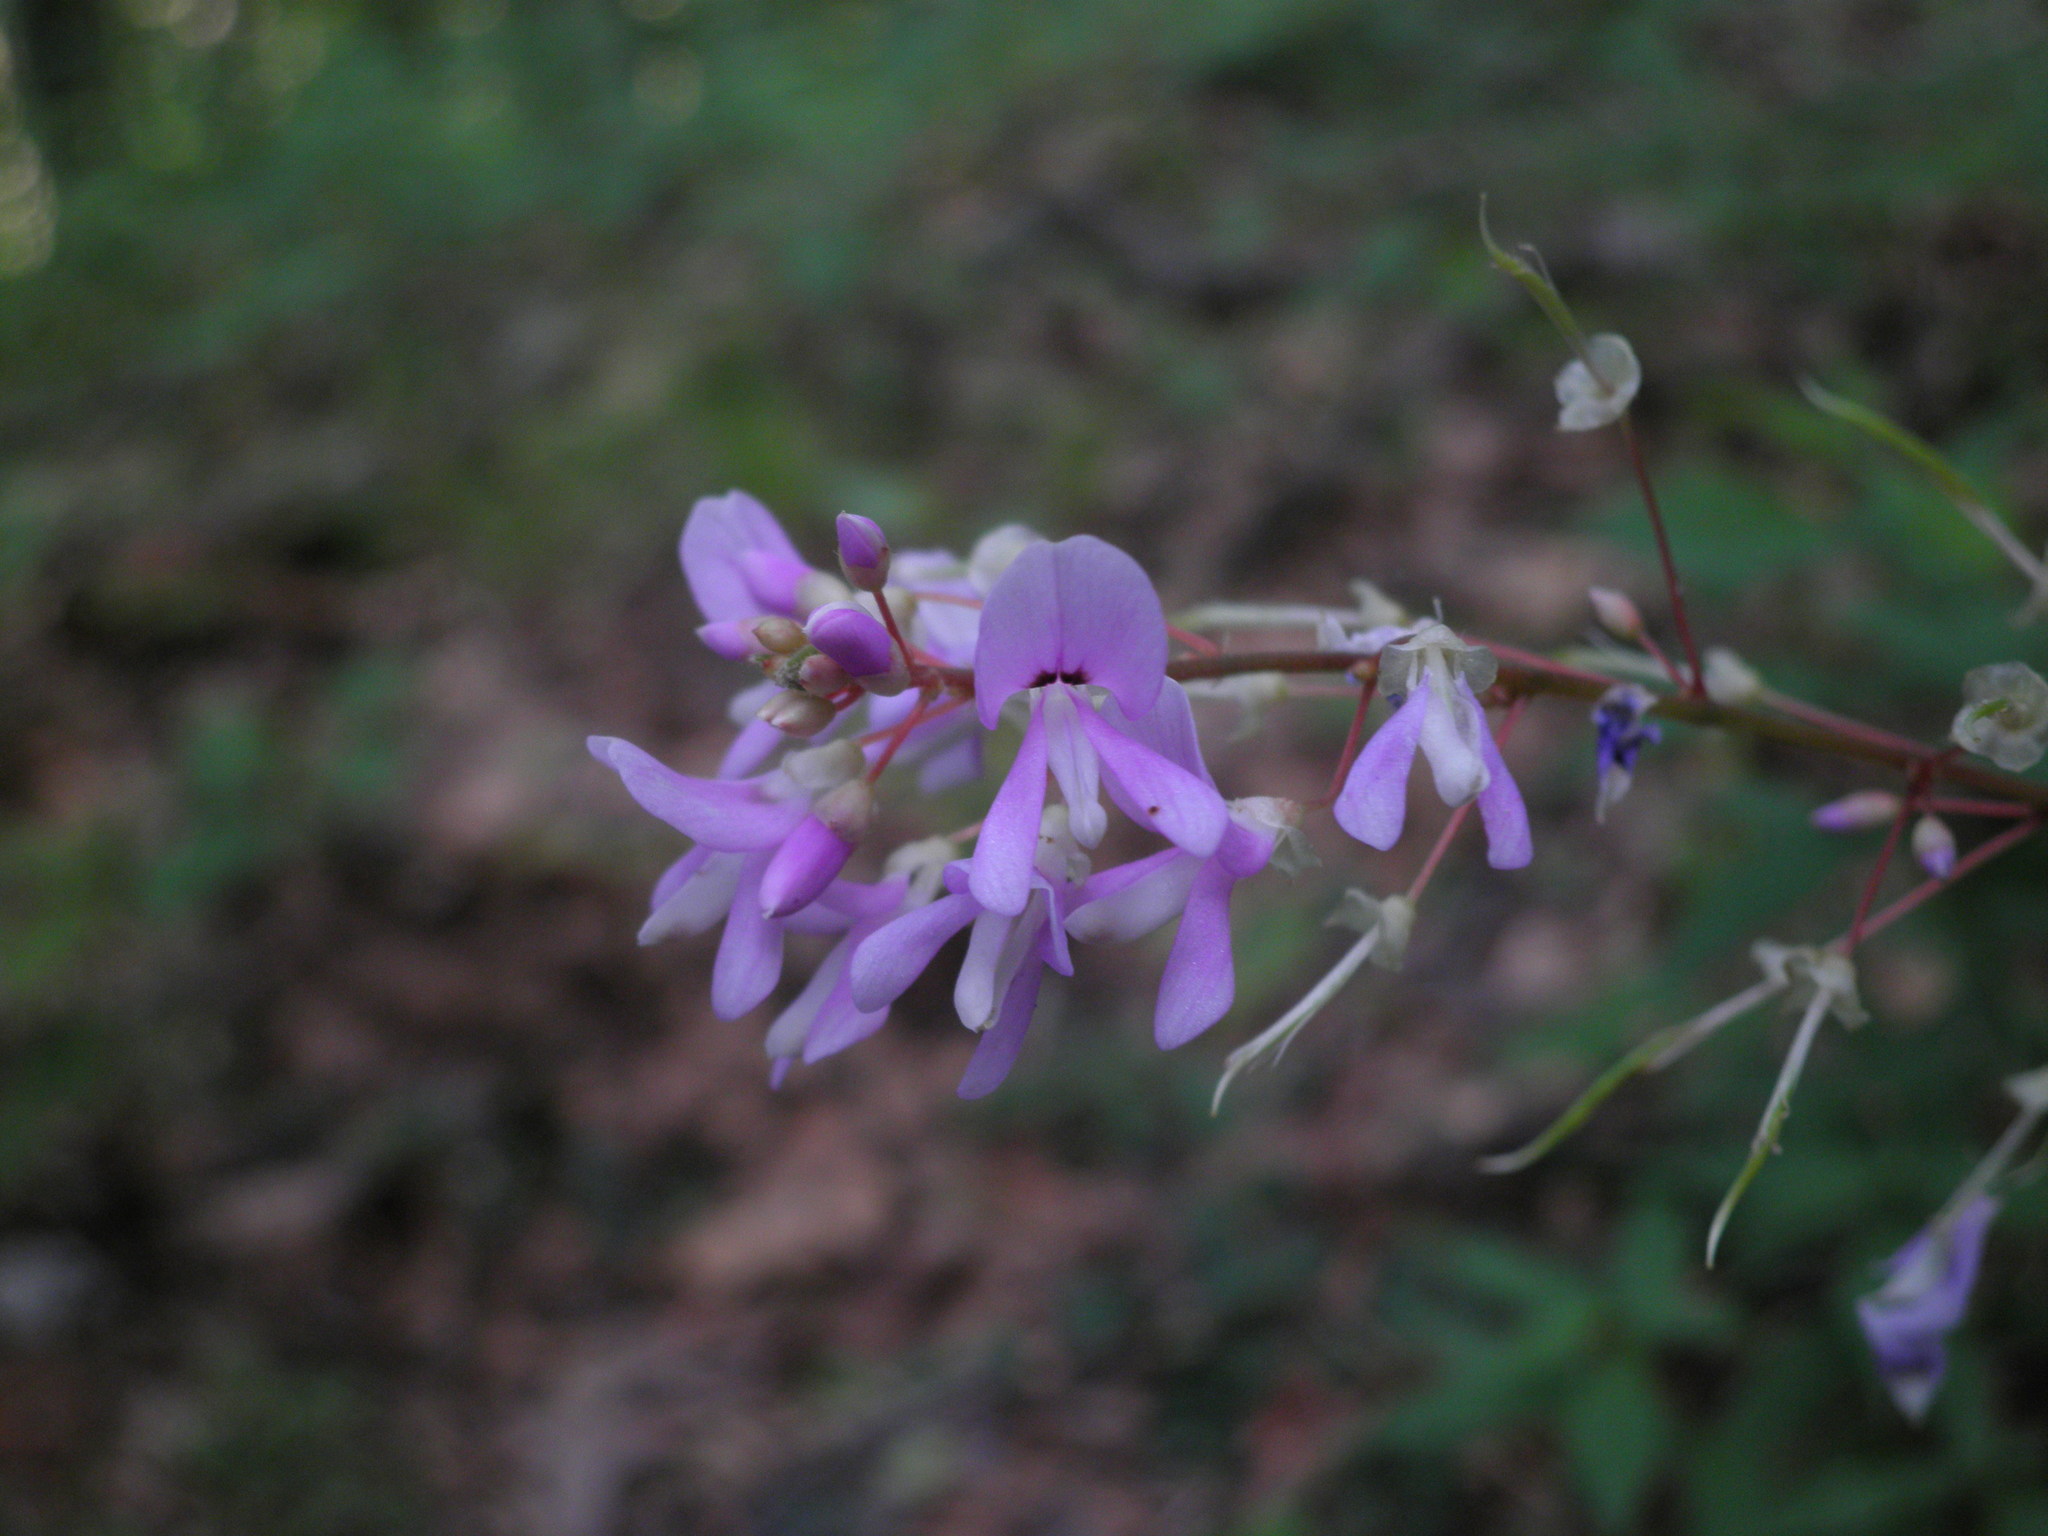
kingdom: Plantae
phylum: Tracheophyta
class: Magnoliopsida
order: Fabales
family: Fabaceae
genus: Hylodesmum
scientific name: Hylodesmum nudiflorum
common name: Bare-stemmed tick-trefoil
